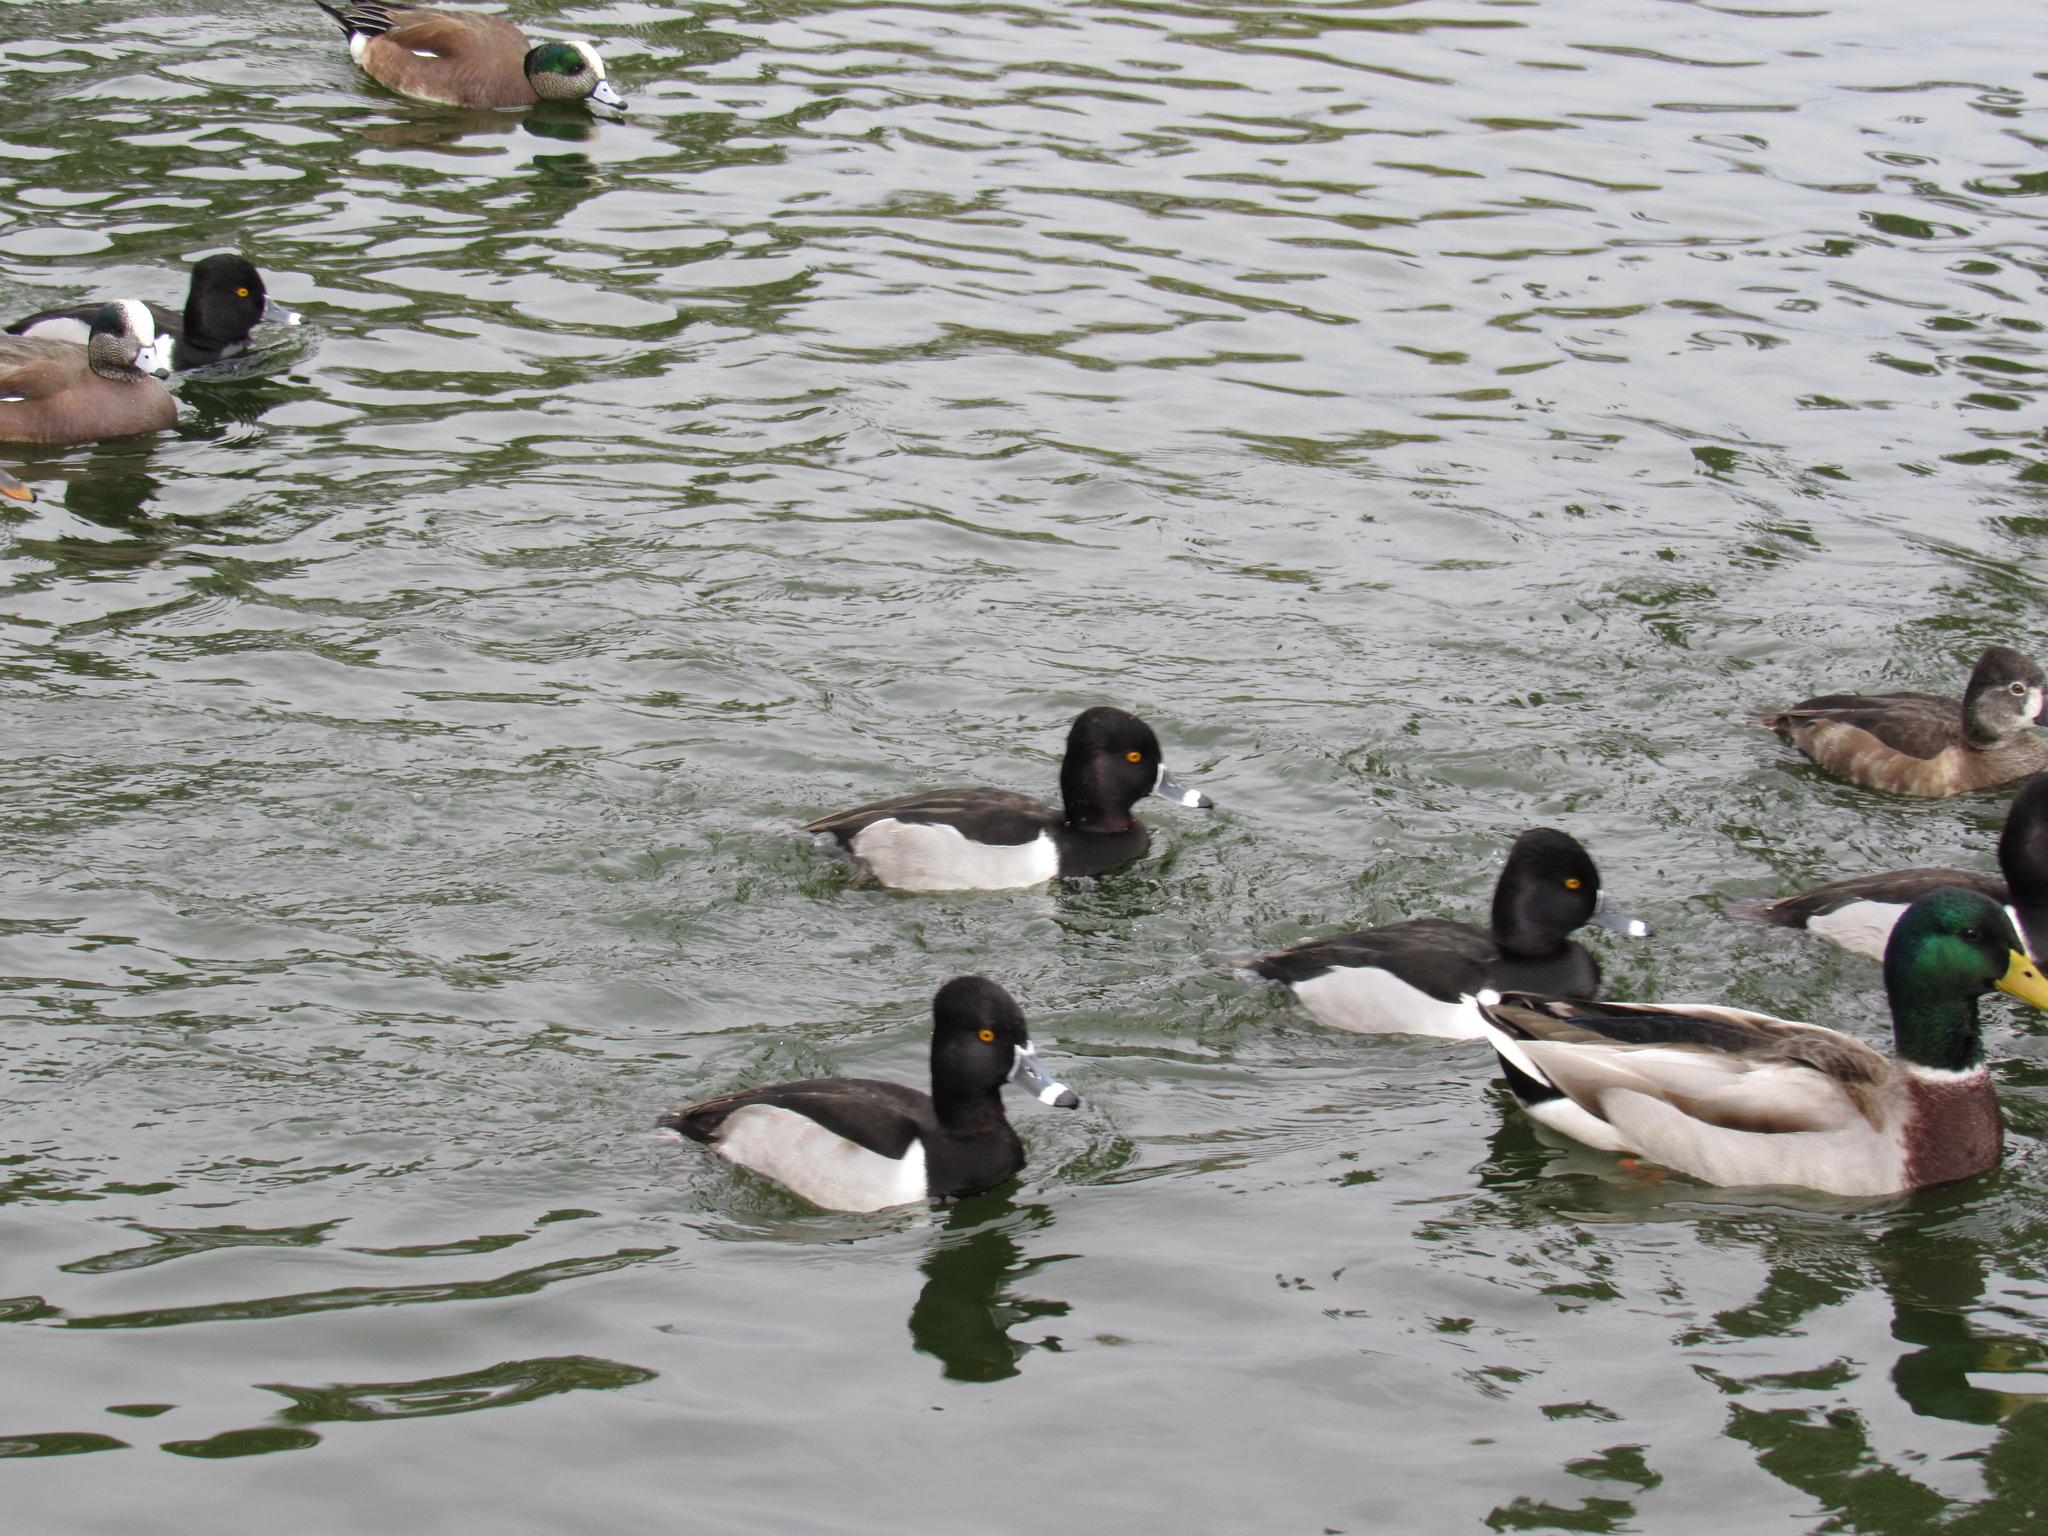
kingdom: Animalia
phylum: Chordata
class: Aves
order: Anseriformes
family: Anatidae
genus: Aythya
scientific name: Aythya collaris
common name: Ring-necked duck
